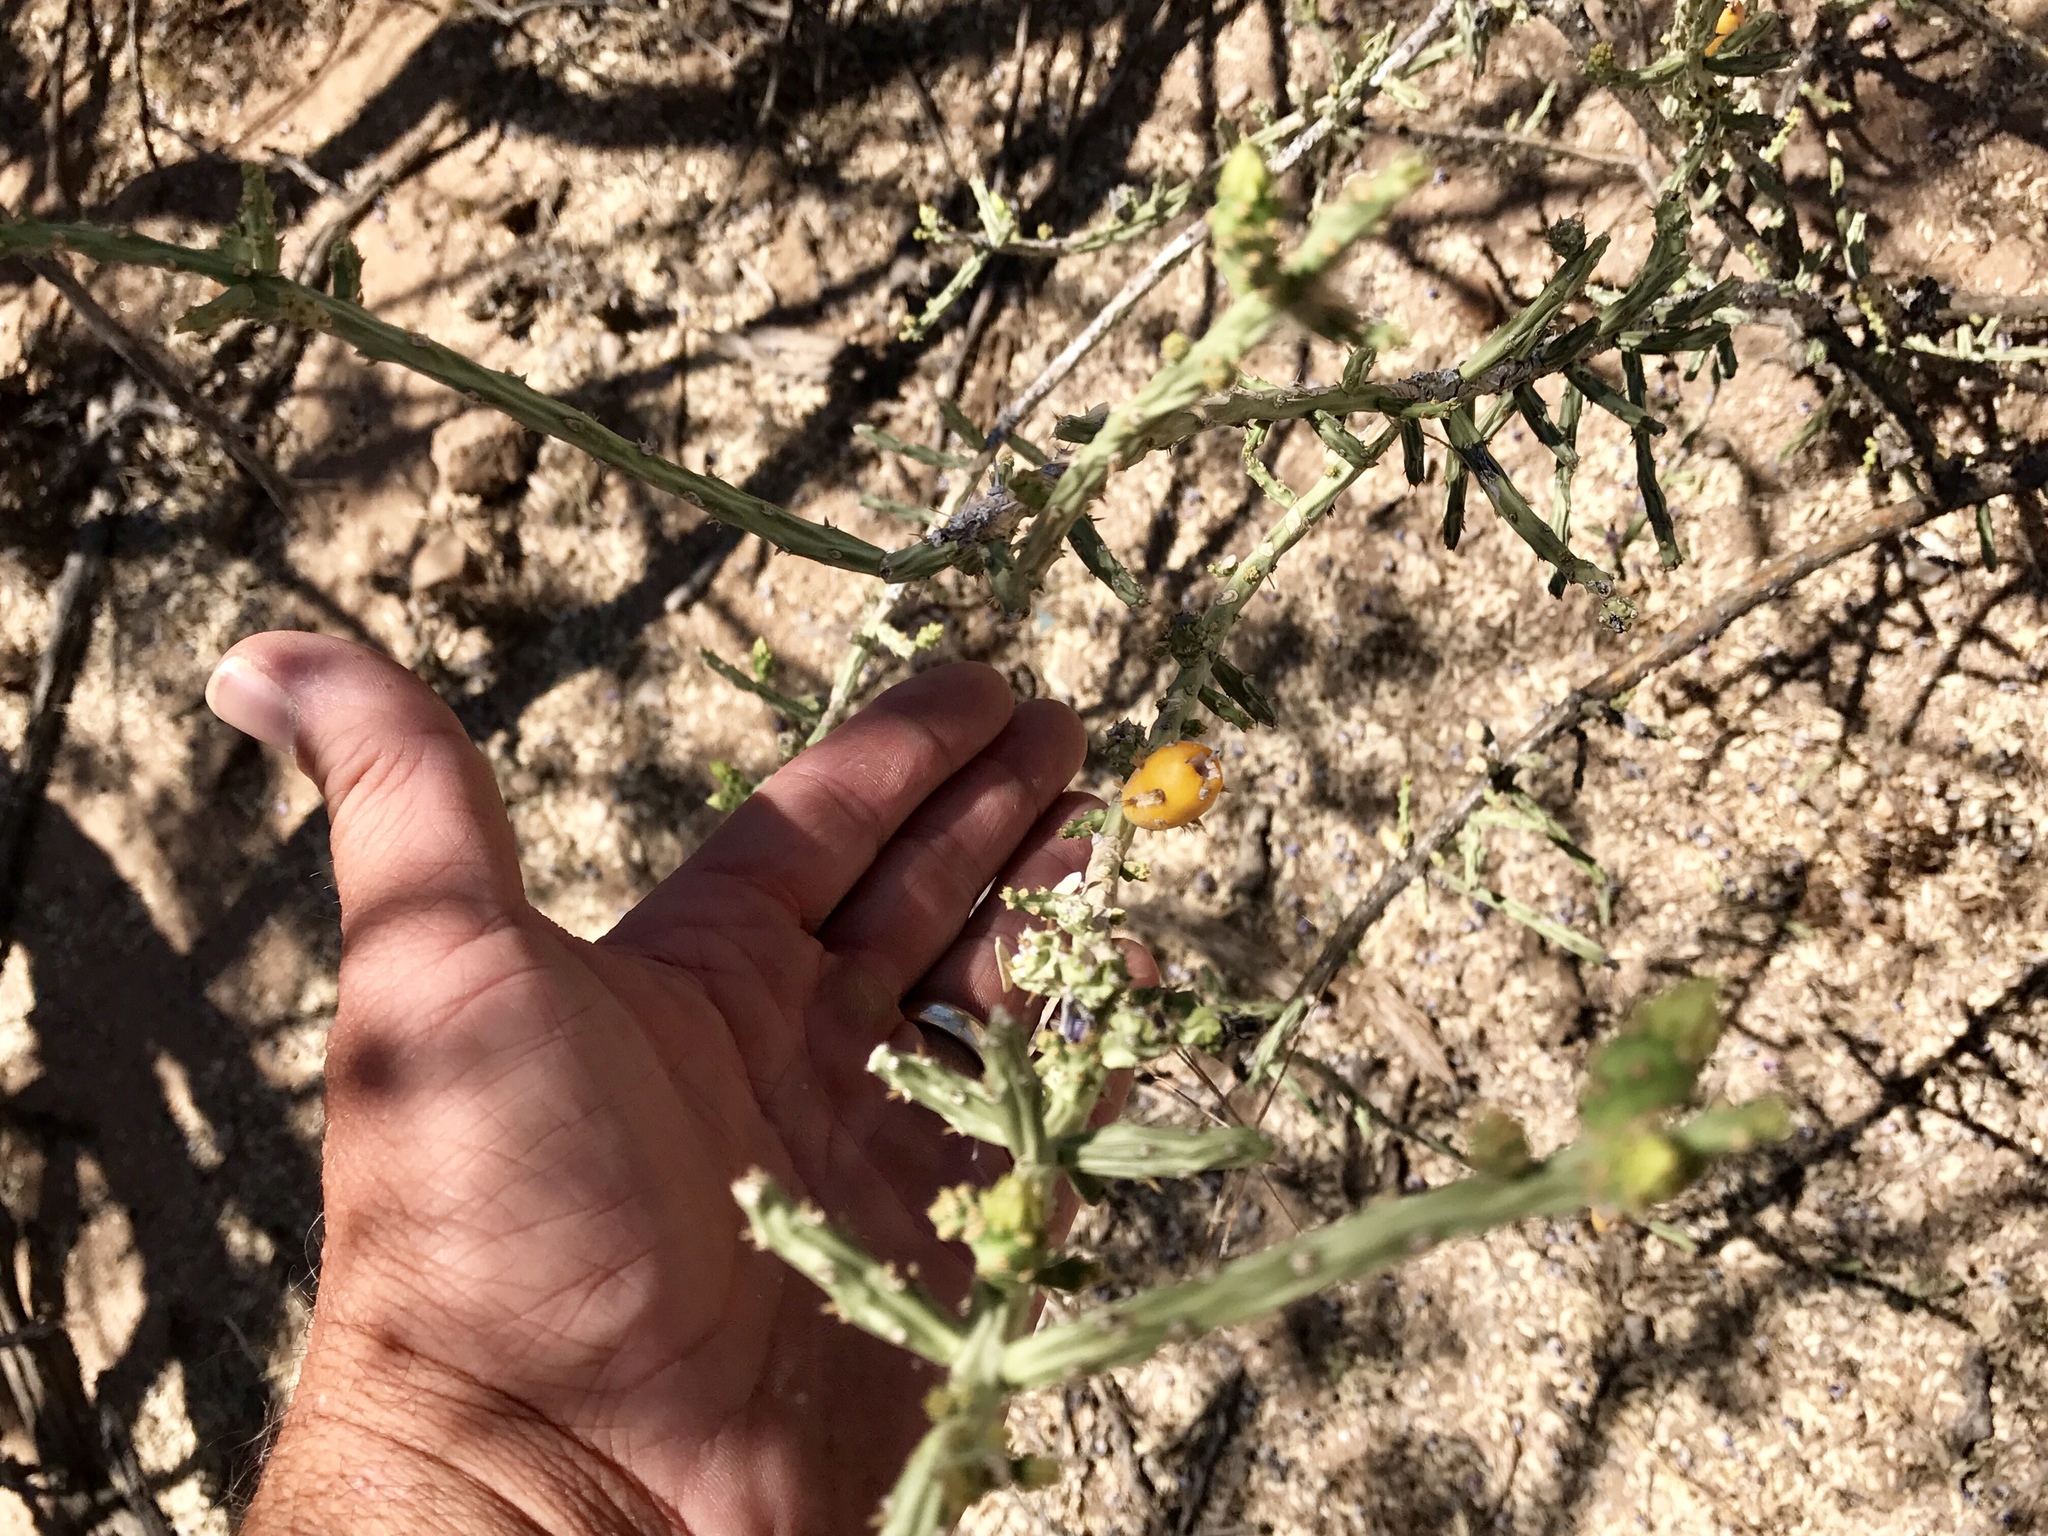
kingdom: Plantae
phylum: Tracheophyta
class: Magnoliopsida
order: Caryophyllales
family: Cactaceae
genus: Cylindropuntia
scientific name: Cylindropuntia leptocaulis
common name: Christmas cactus
